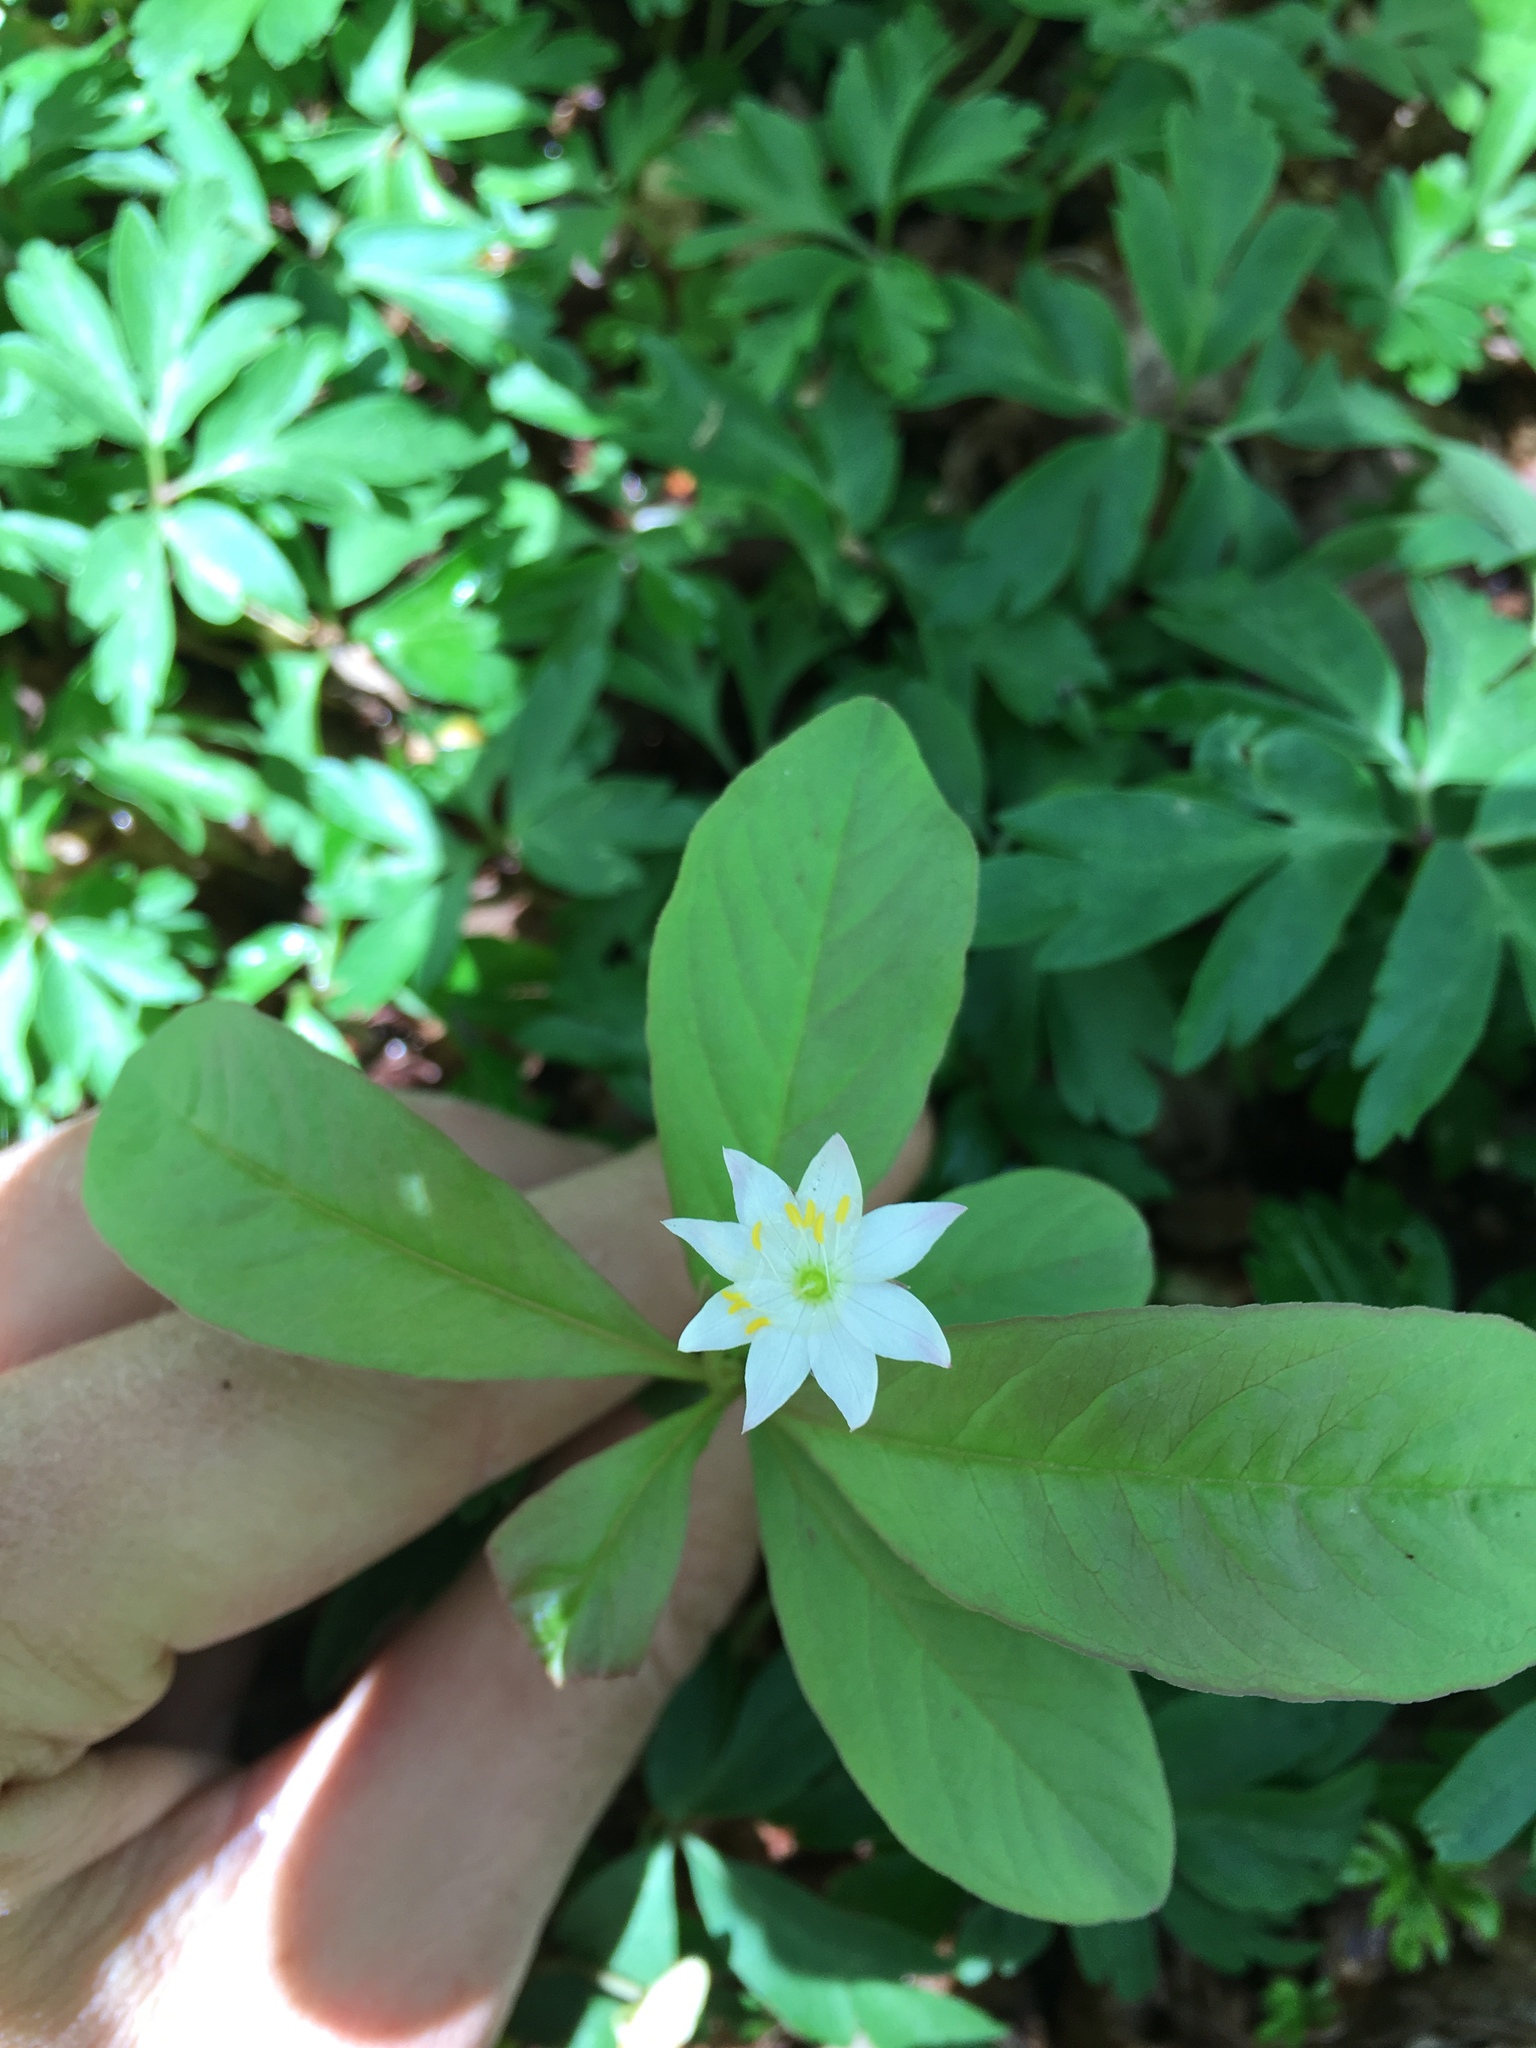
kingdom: Plantae
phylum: Tracheophyta
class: Magnoliopsida
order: Ericales
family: Primulaceae
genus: Lysimachia
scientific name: Lysimachia europaea
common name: Arctic starflower
